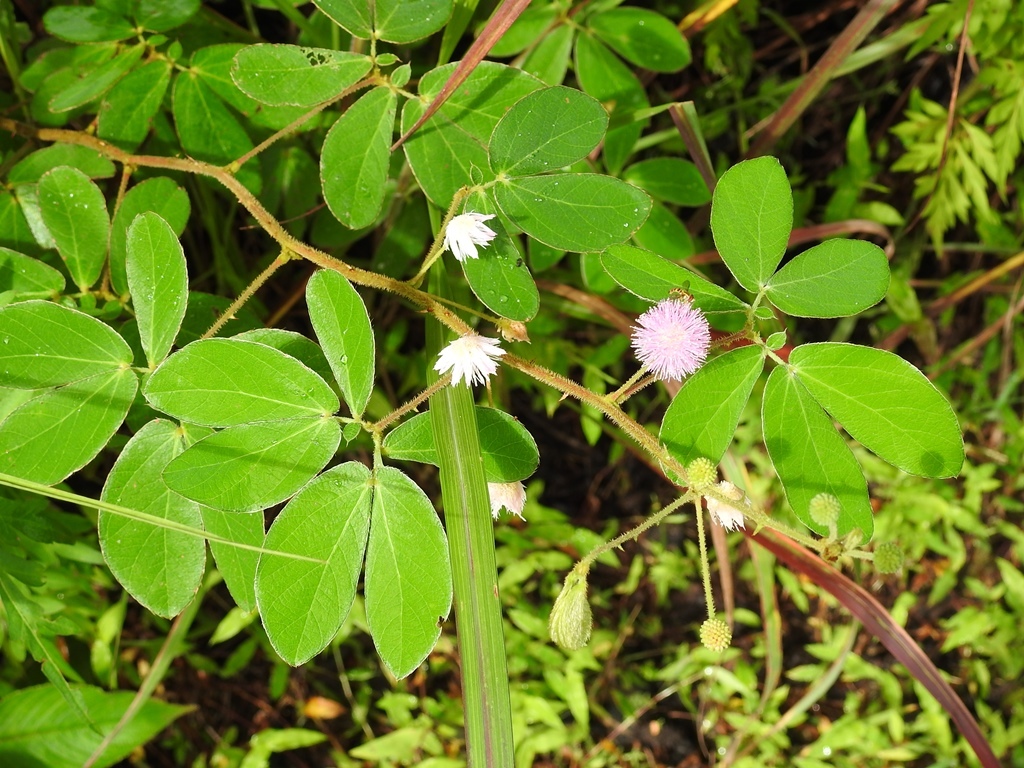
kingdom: Plantae
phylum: Tracheophyta
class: Magnoliopsida
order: Fabales
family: Fabaceae
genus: Mimosa
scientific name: Mimosa albida
